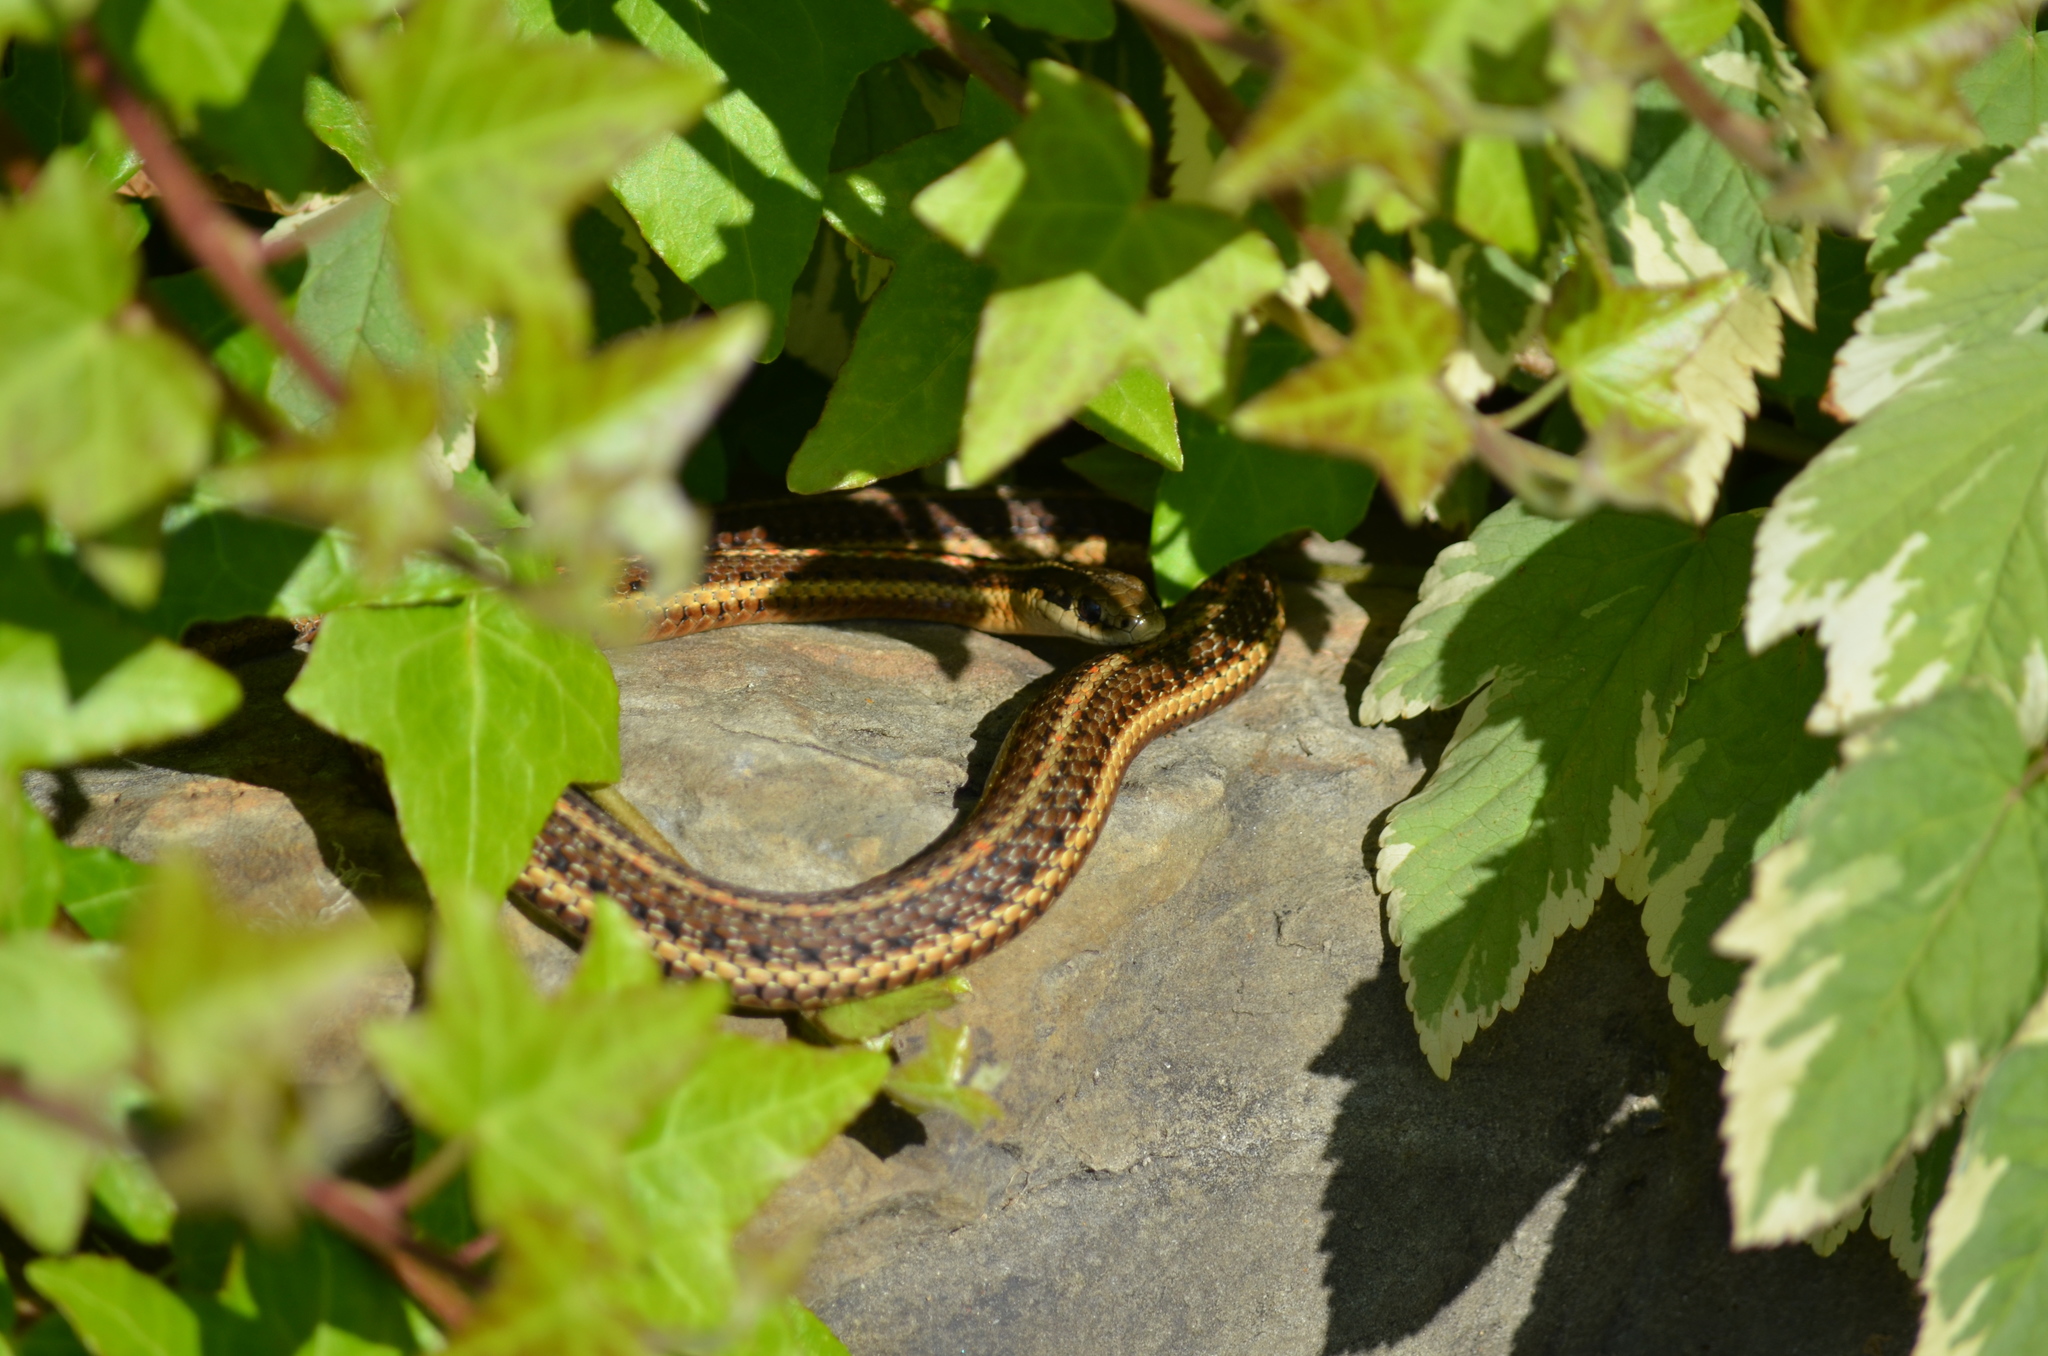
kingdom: Animalia
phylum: Chordata
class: Squamata
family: Colubridae
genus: Thamnophis
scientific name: Thamnophis ordinoides
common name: Northwestern garter snake
